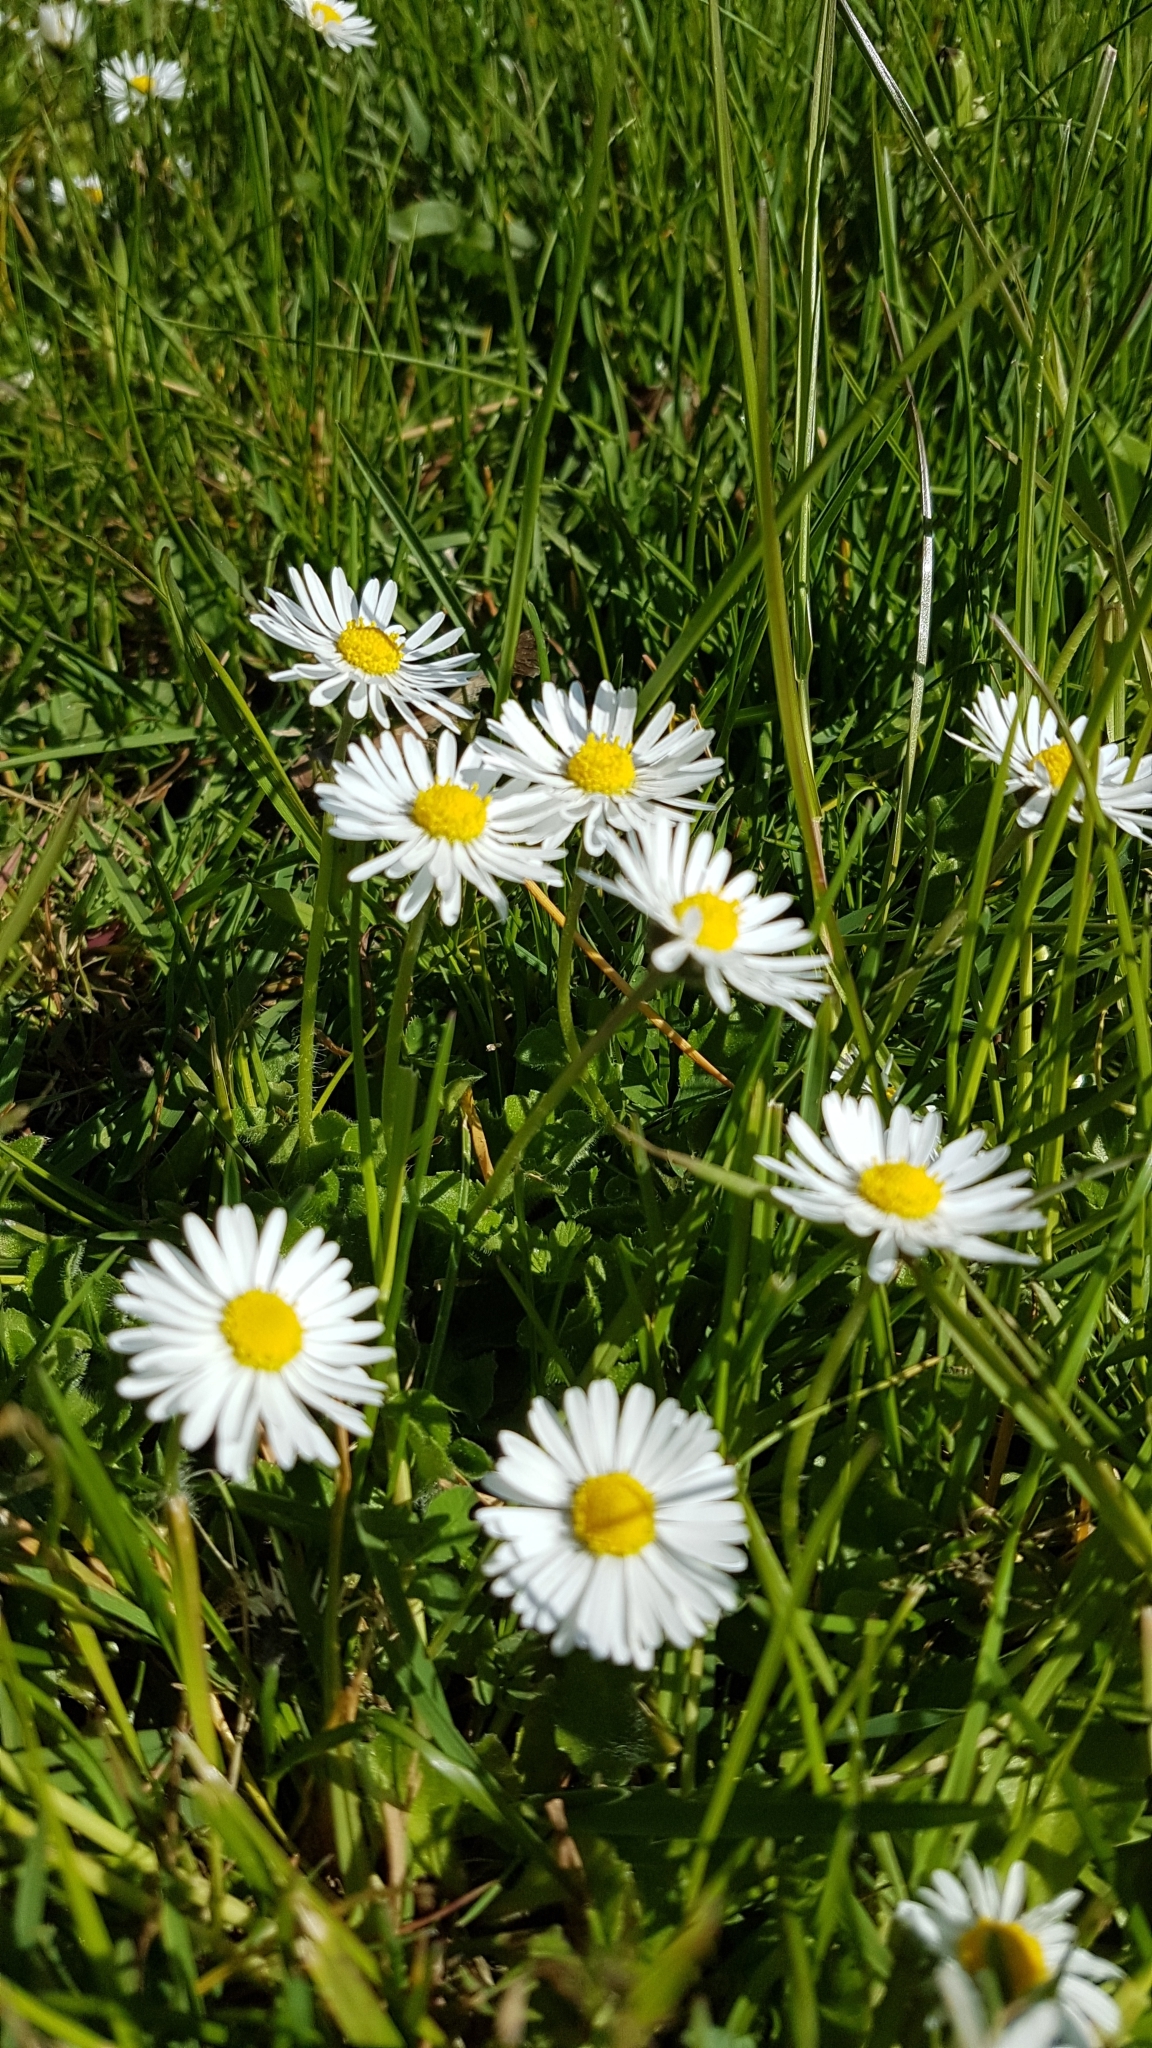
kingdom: Plantae
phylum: Tracheophyta
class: Magnoliopsida
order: Asterales
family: Asteraceae
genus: Bellis
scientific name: Bellis perennis
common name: Lawndaisy
